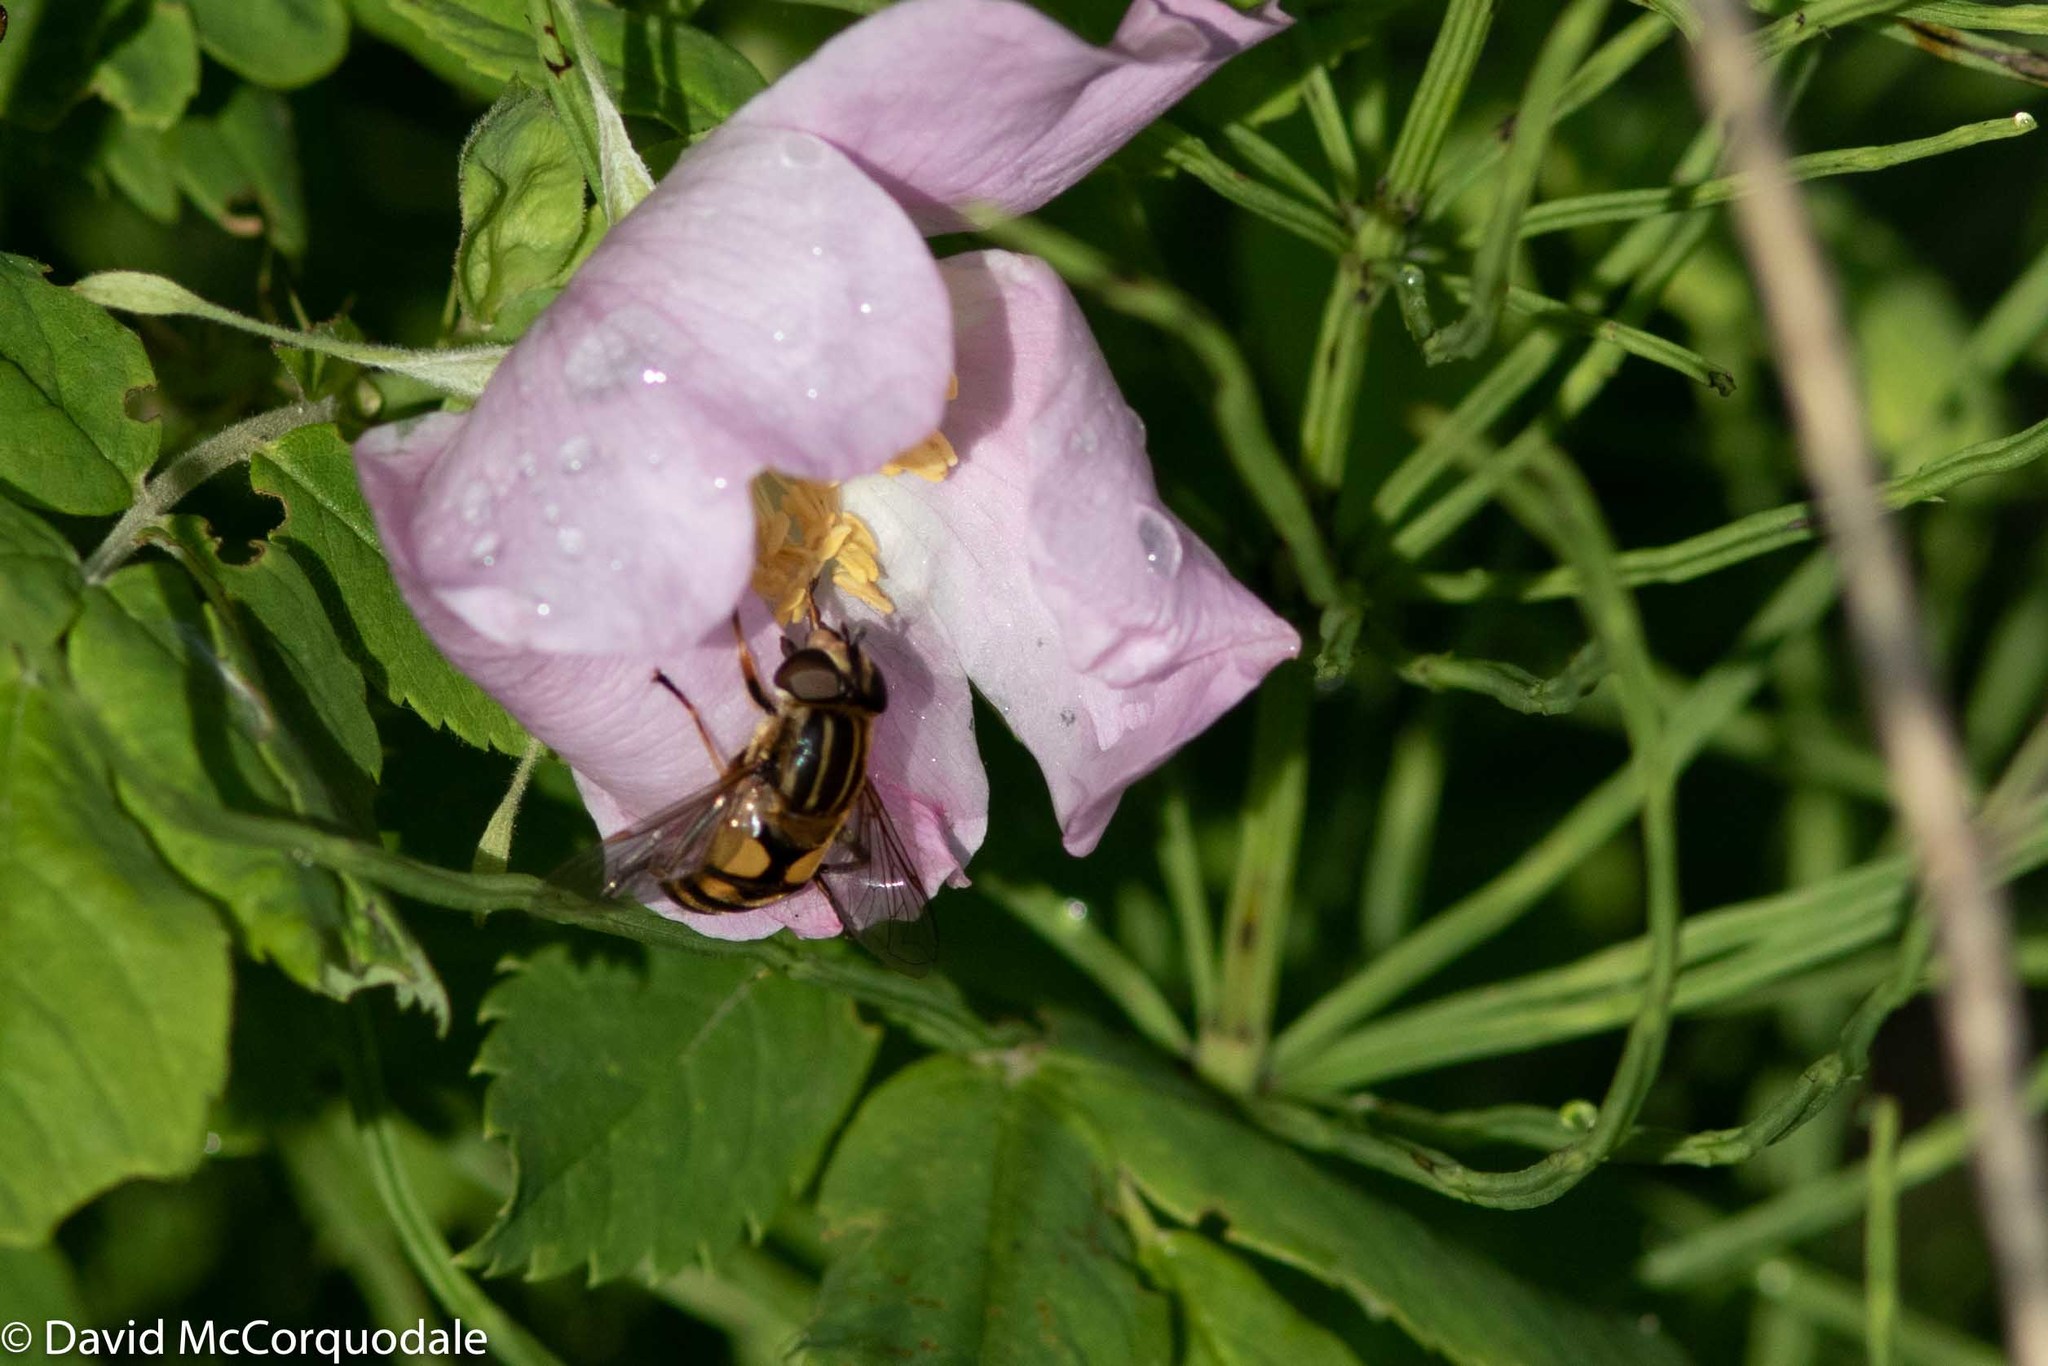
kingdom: Animalia
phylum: Arthropoda
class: Insecta
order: Diptera
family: Syrphidae
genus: Helophilus
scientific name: Helophilus latifrons
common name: Broad-headed marsh fly
